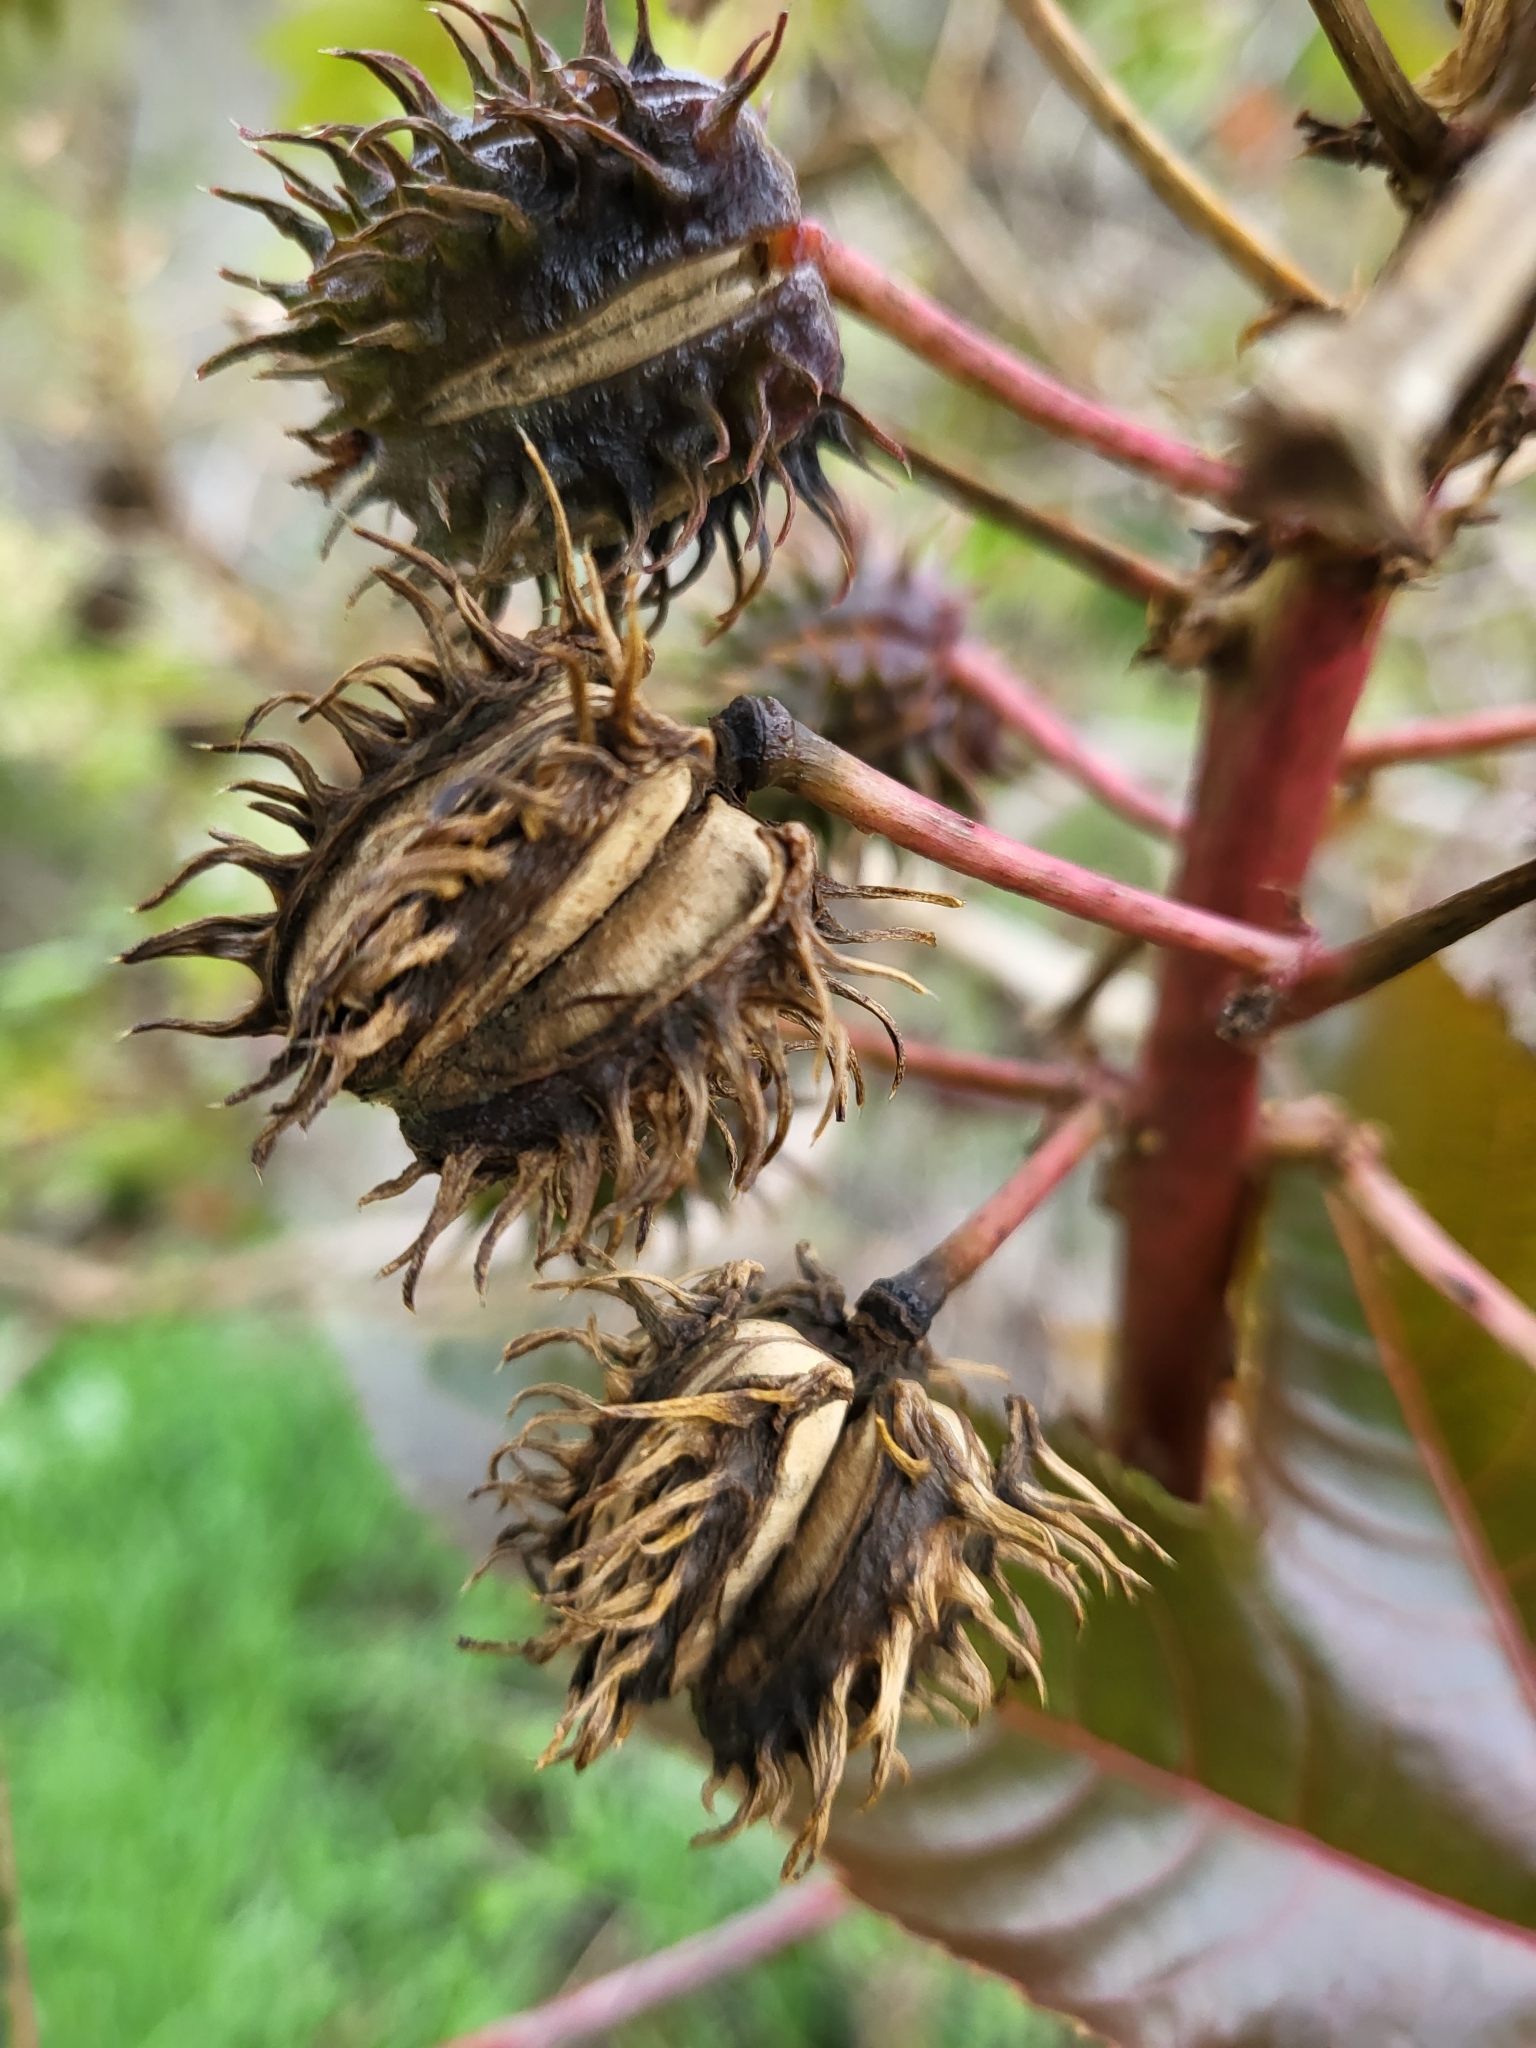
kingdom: Plantae
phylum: Tracheophyta
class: Magnoliopsida
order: Malpighiales
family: Euphorbiaceae
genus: Ricinus
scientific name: Ricinus communis
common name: Castor-oil-plant
